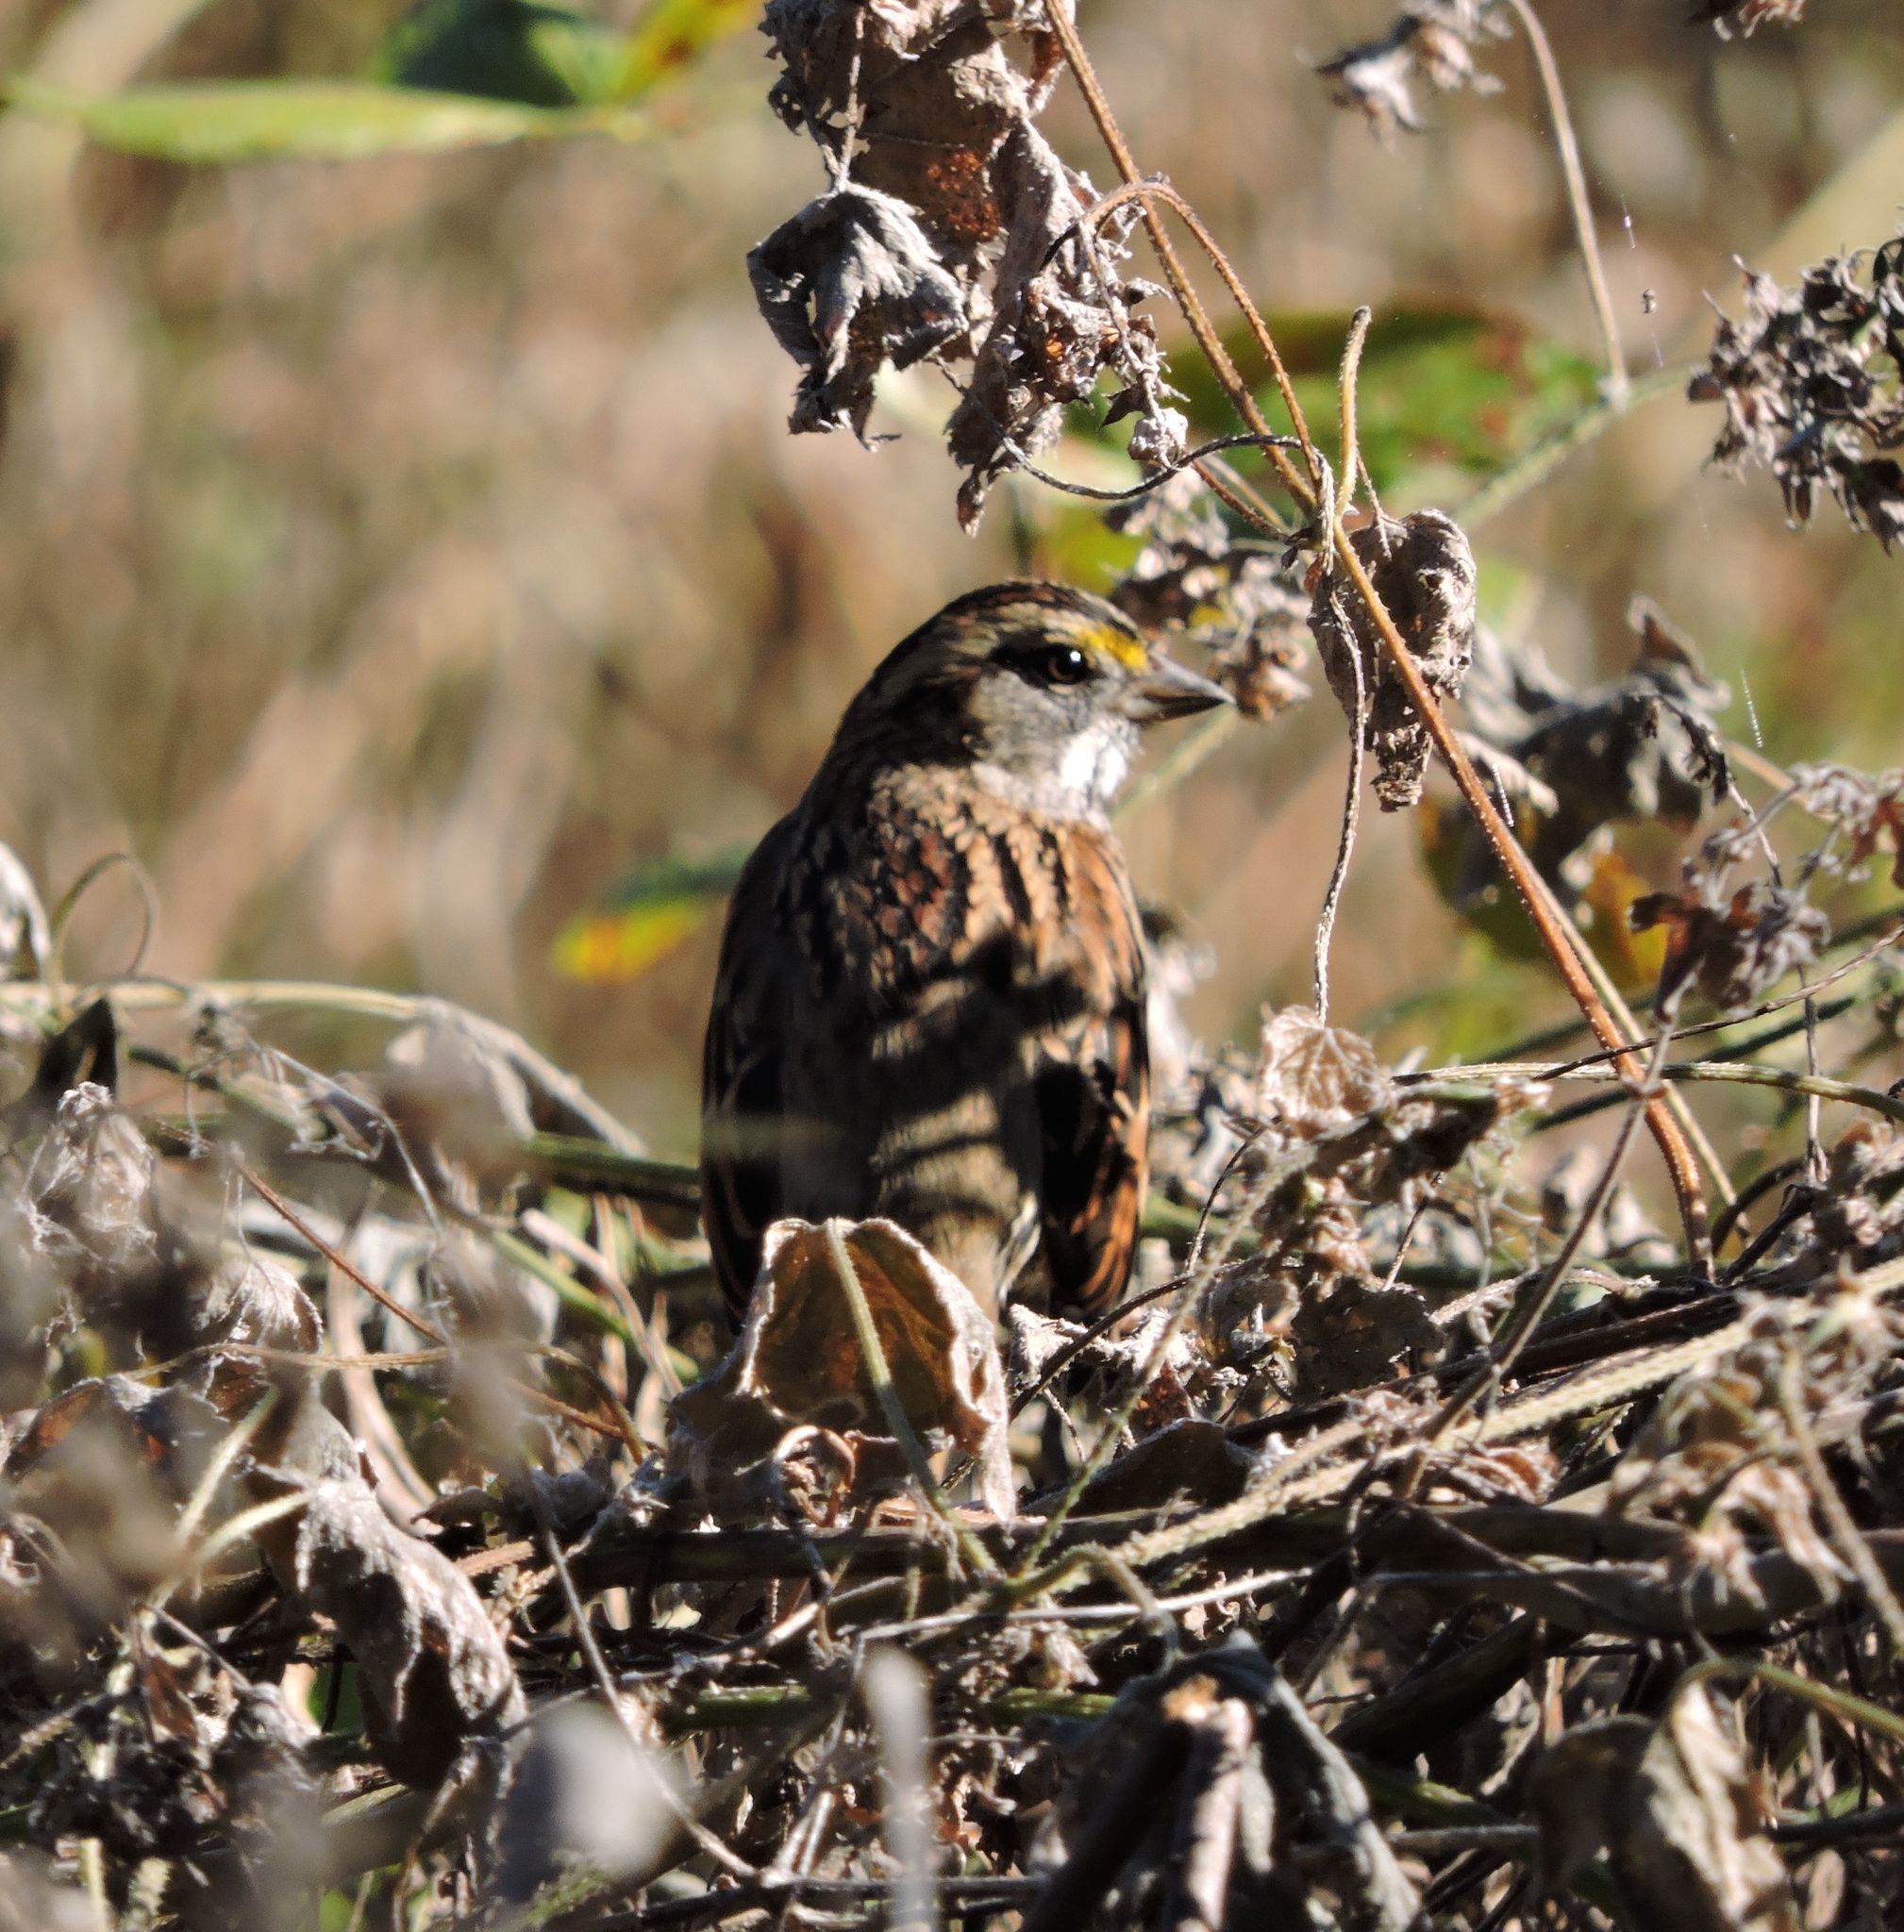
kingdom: Animalia
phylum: Chordata
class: Aves
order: Passeriformes
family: Passerellidae
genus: Zonotrichia
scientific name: Zonotrichia albicollis
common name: White-throated sparrow
